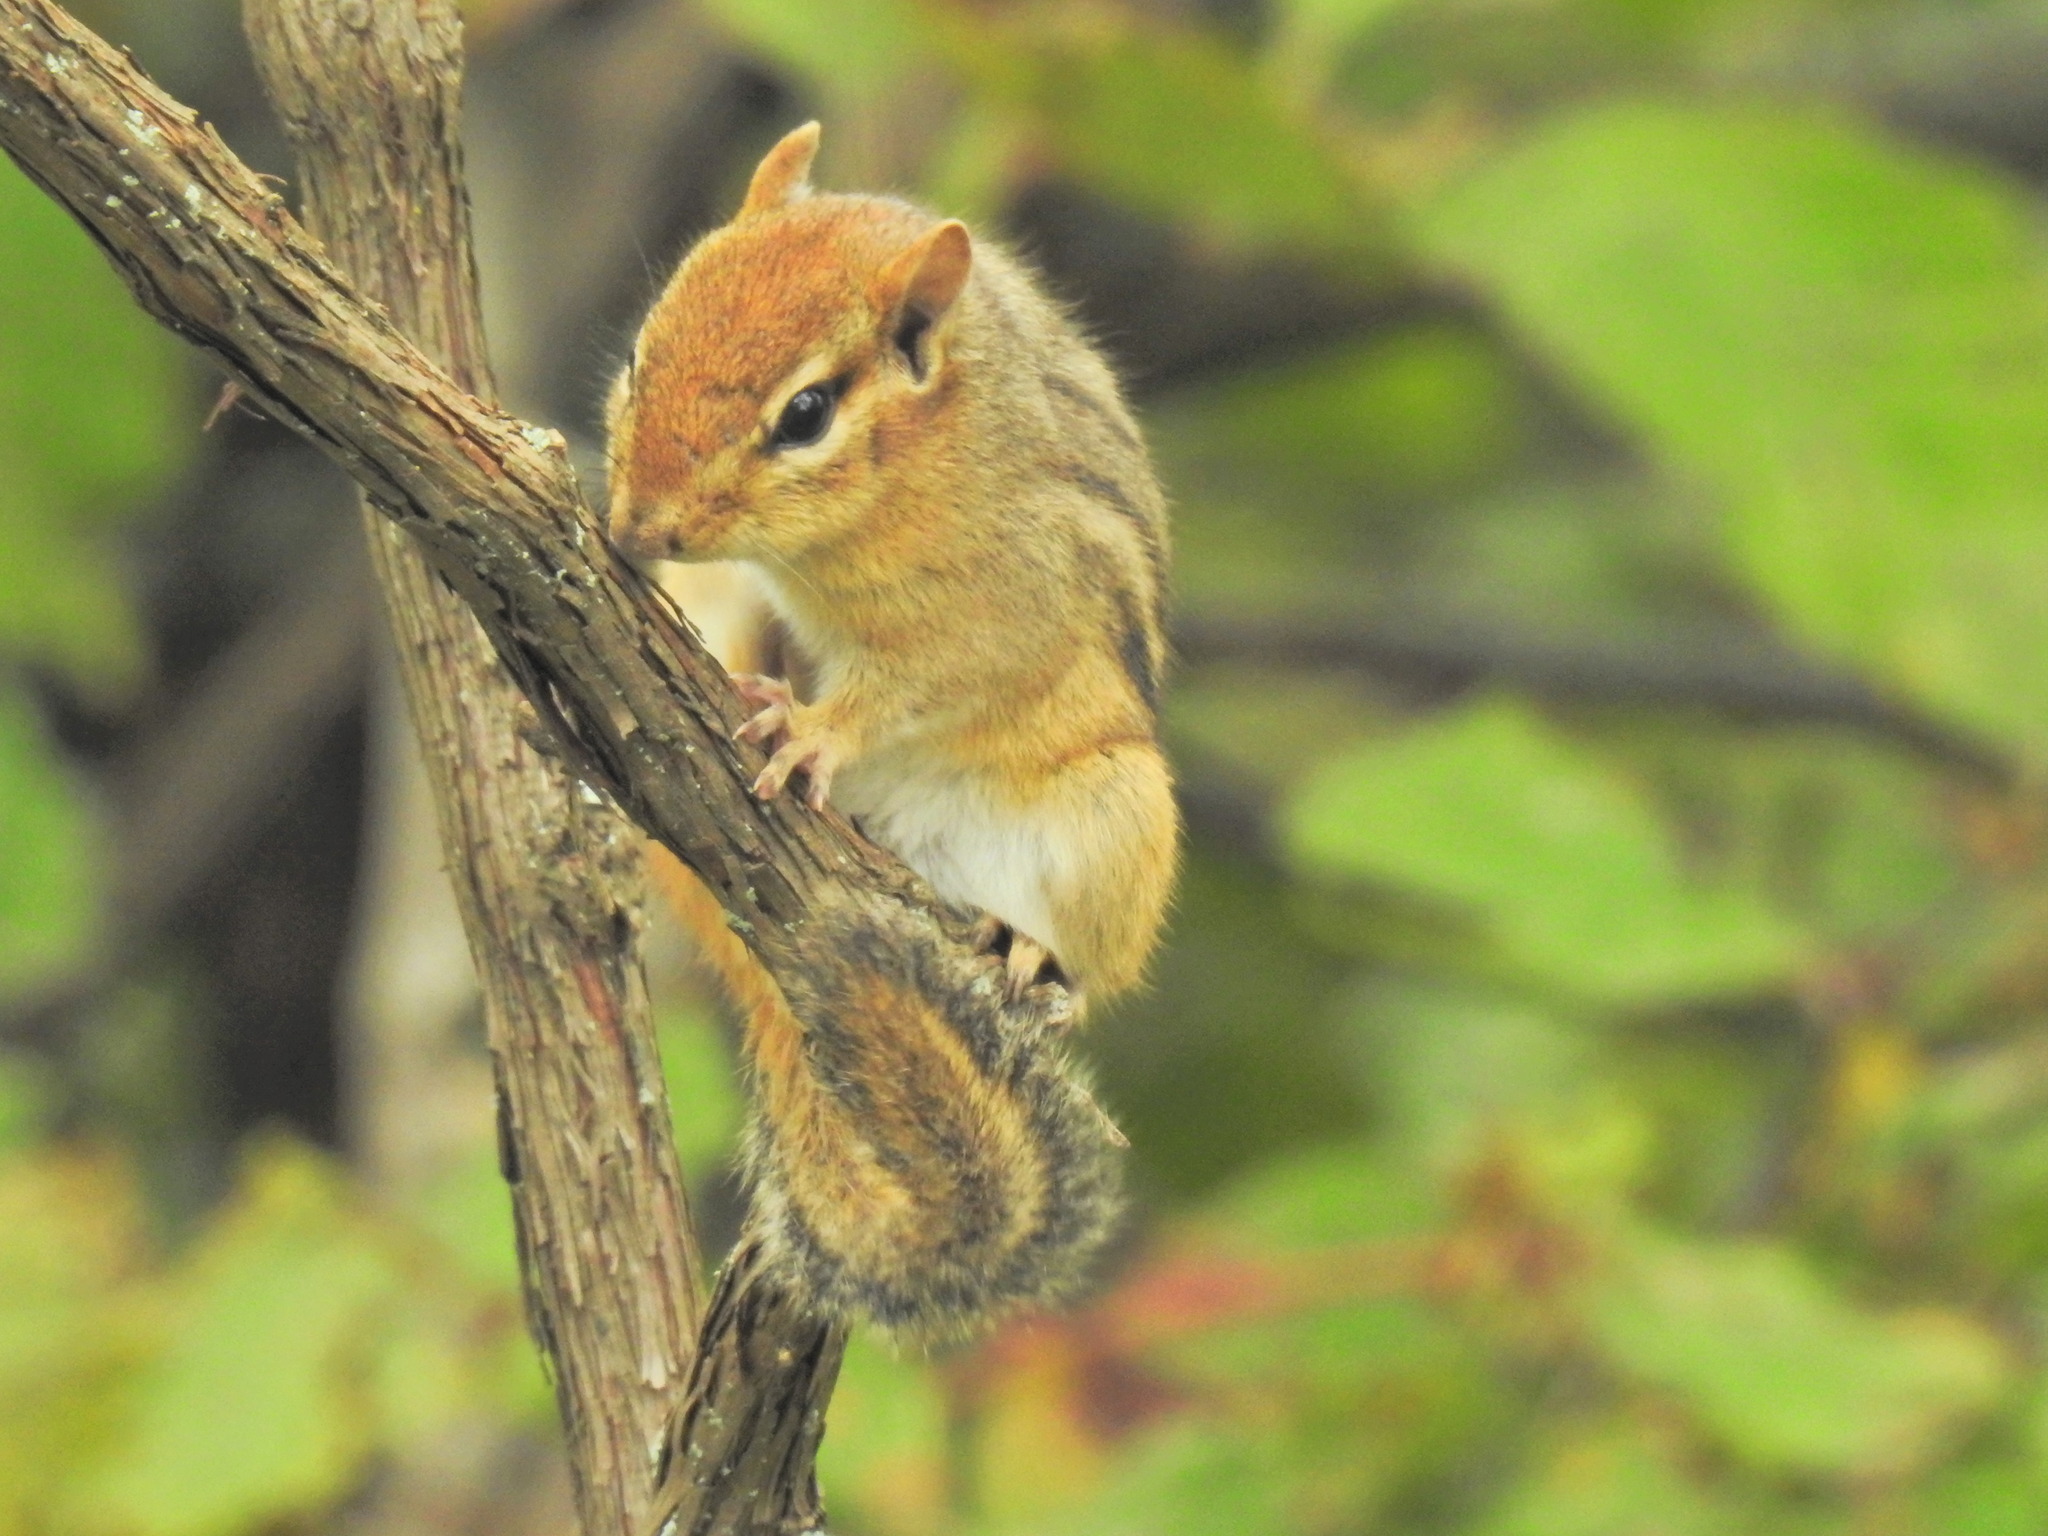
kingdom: Animalia
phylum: Chordata
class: Mammalia
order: Rodentia
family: Sciuridae
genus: Tamias
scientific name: Tamias striatus
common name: Eastern chipmunk
